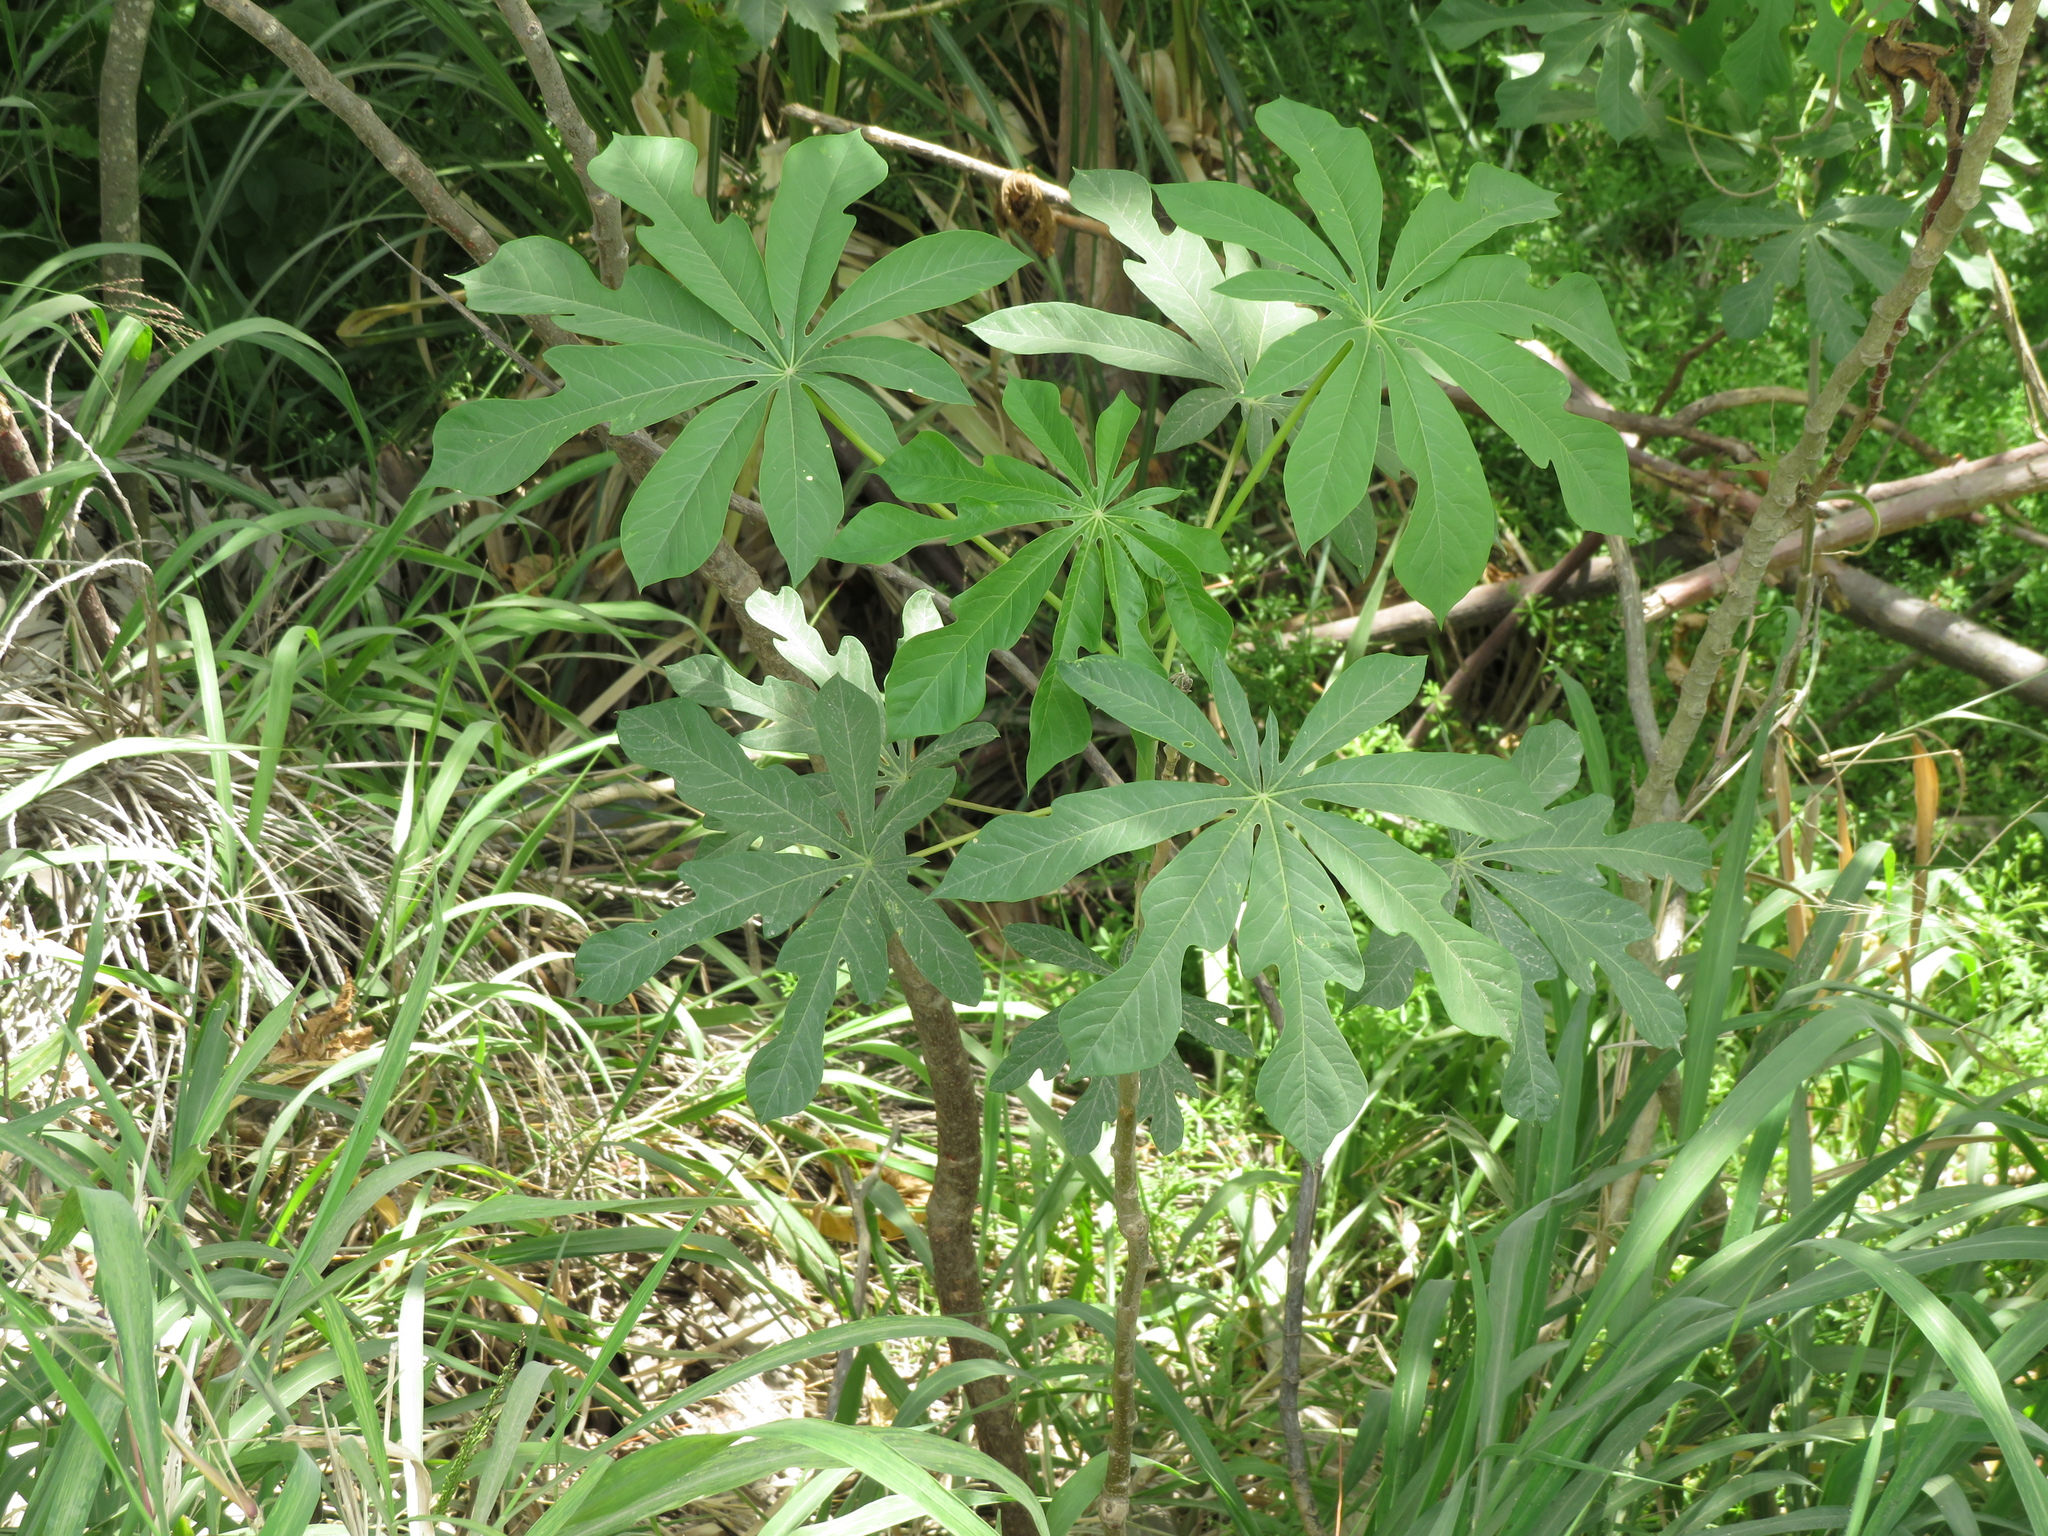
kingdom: Plantae
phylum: Tracheophyta
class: Magnoliopsida
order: Malpighiales
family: Euphorbiaceae
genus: Manihot
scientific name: Manihot grahamii
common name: Graham's manihot
